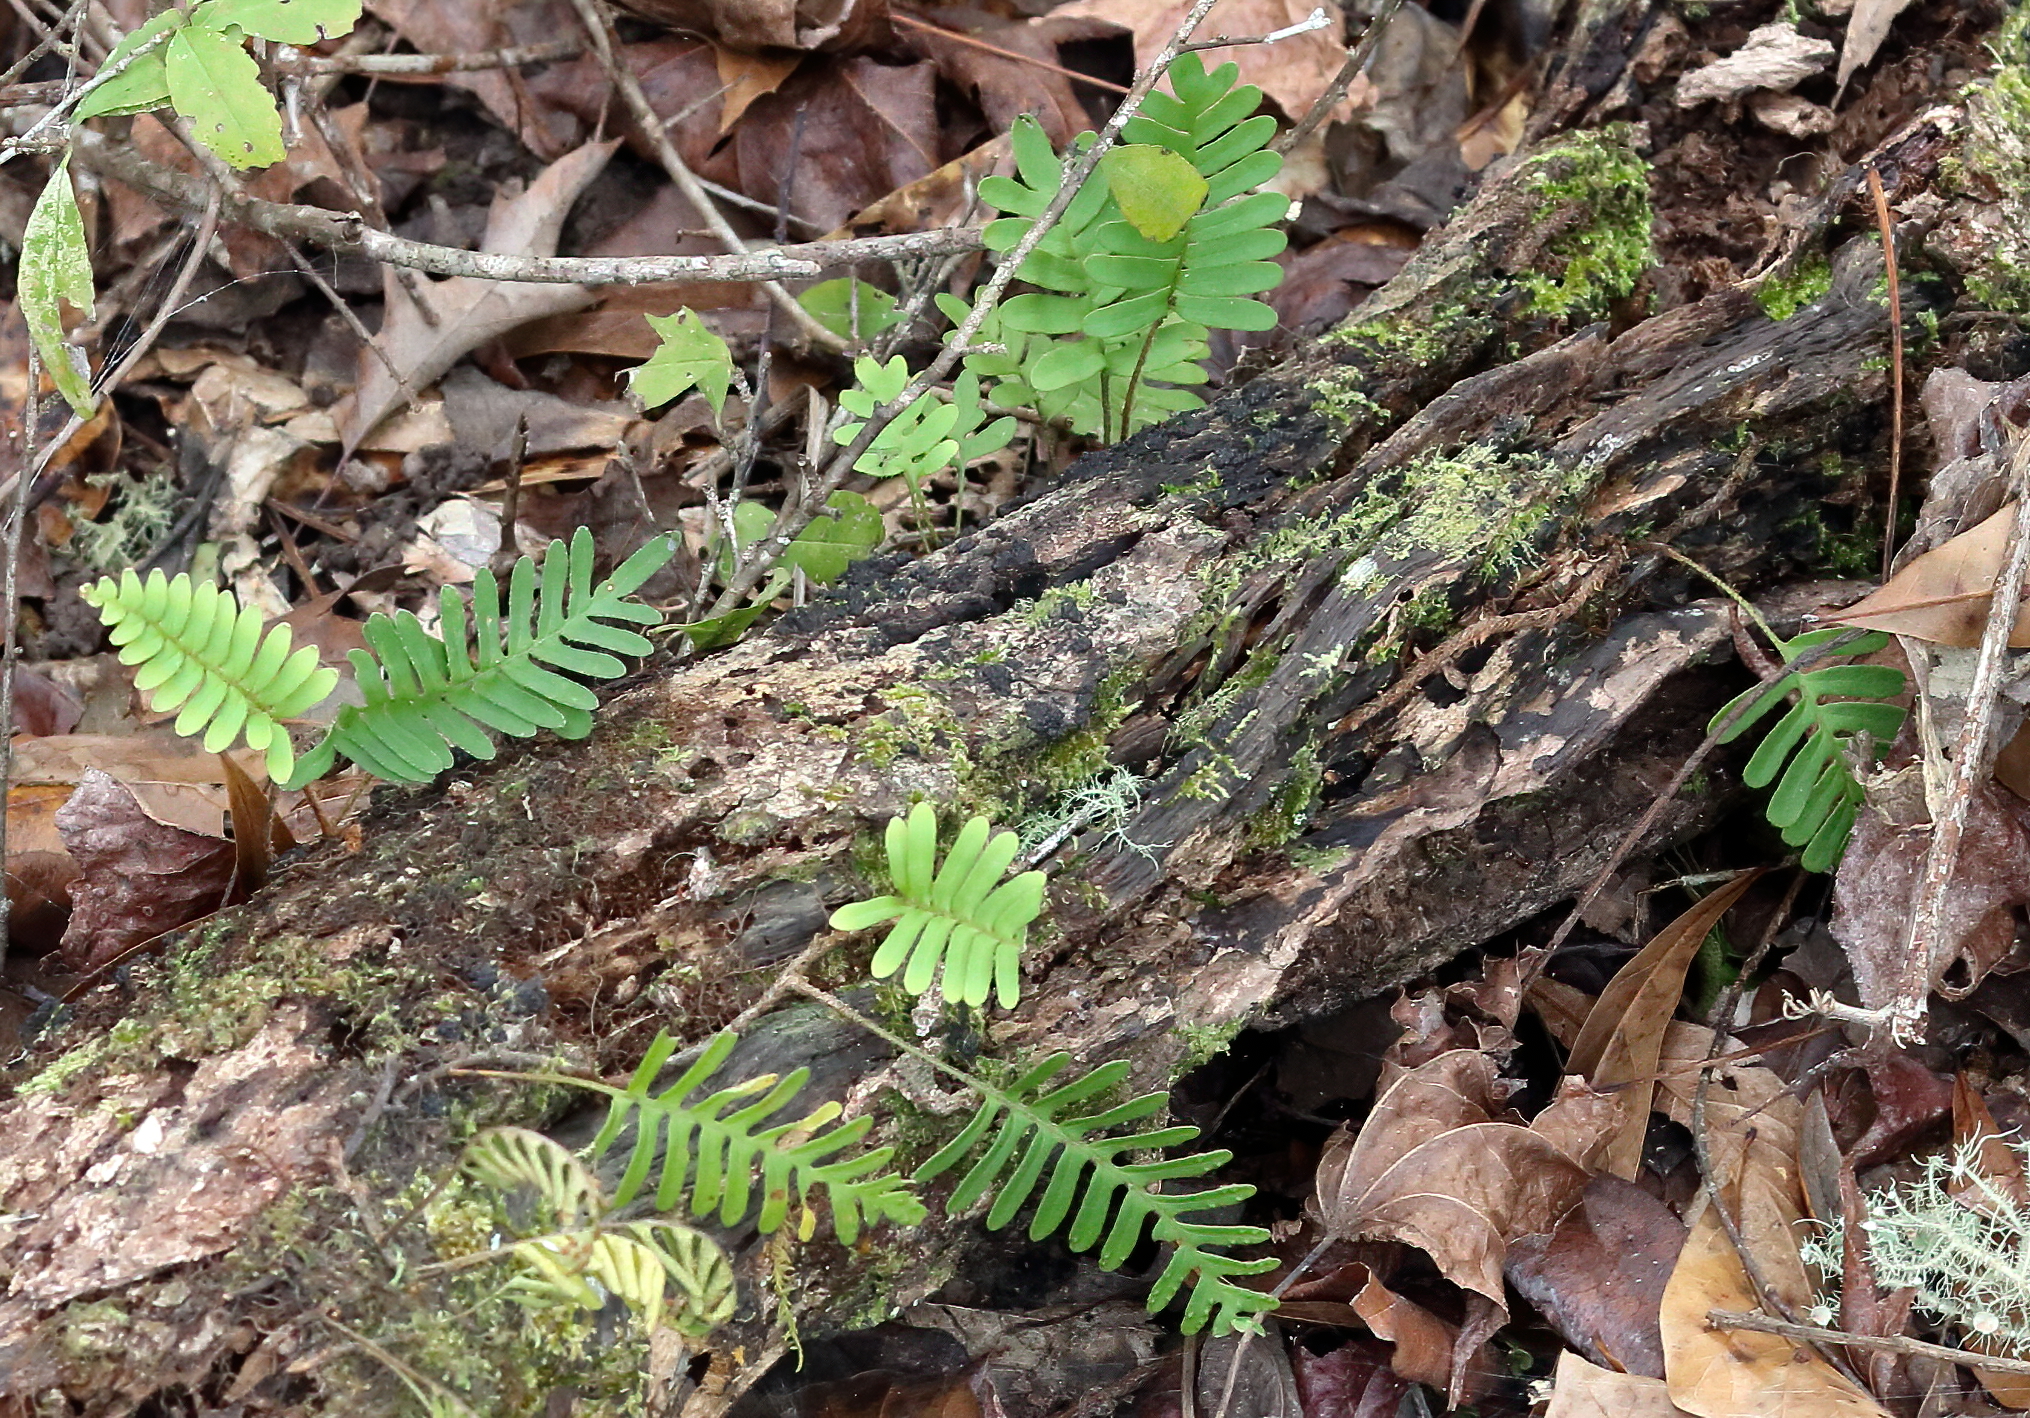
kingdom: Plantae
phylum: Tracheophyta
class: Polypodiopsida
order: Polypodiales
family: Polypodiaceae
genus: Pleopeltis
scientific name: Pleopeltis michauxiana
